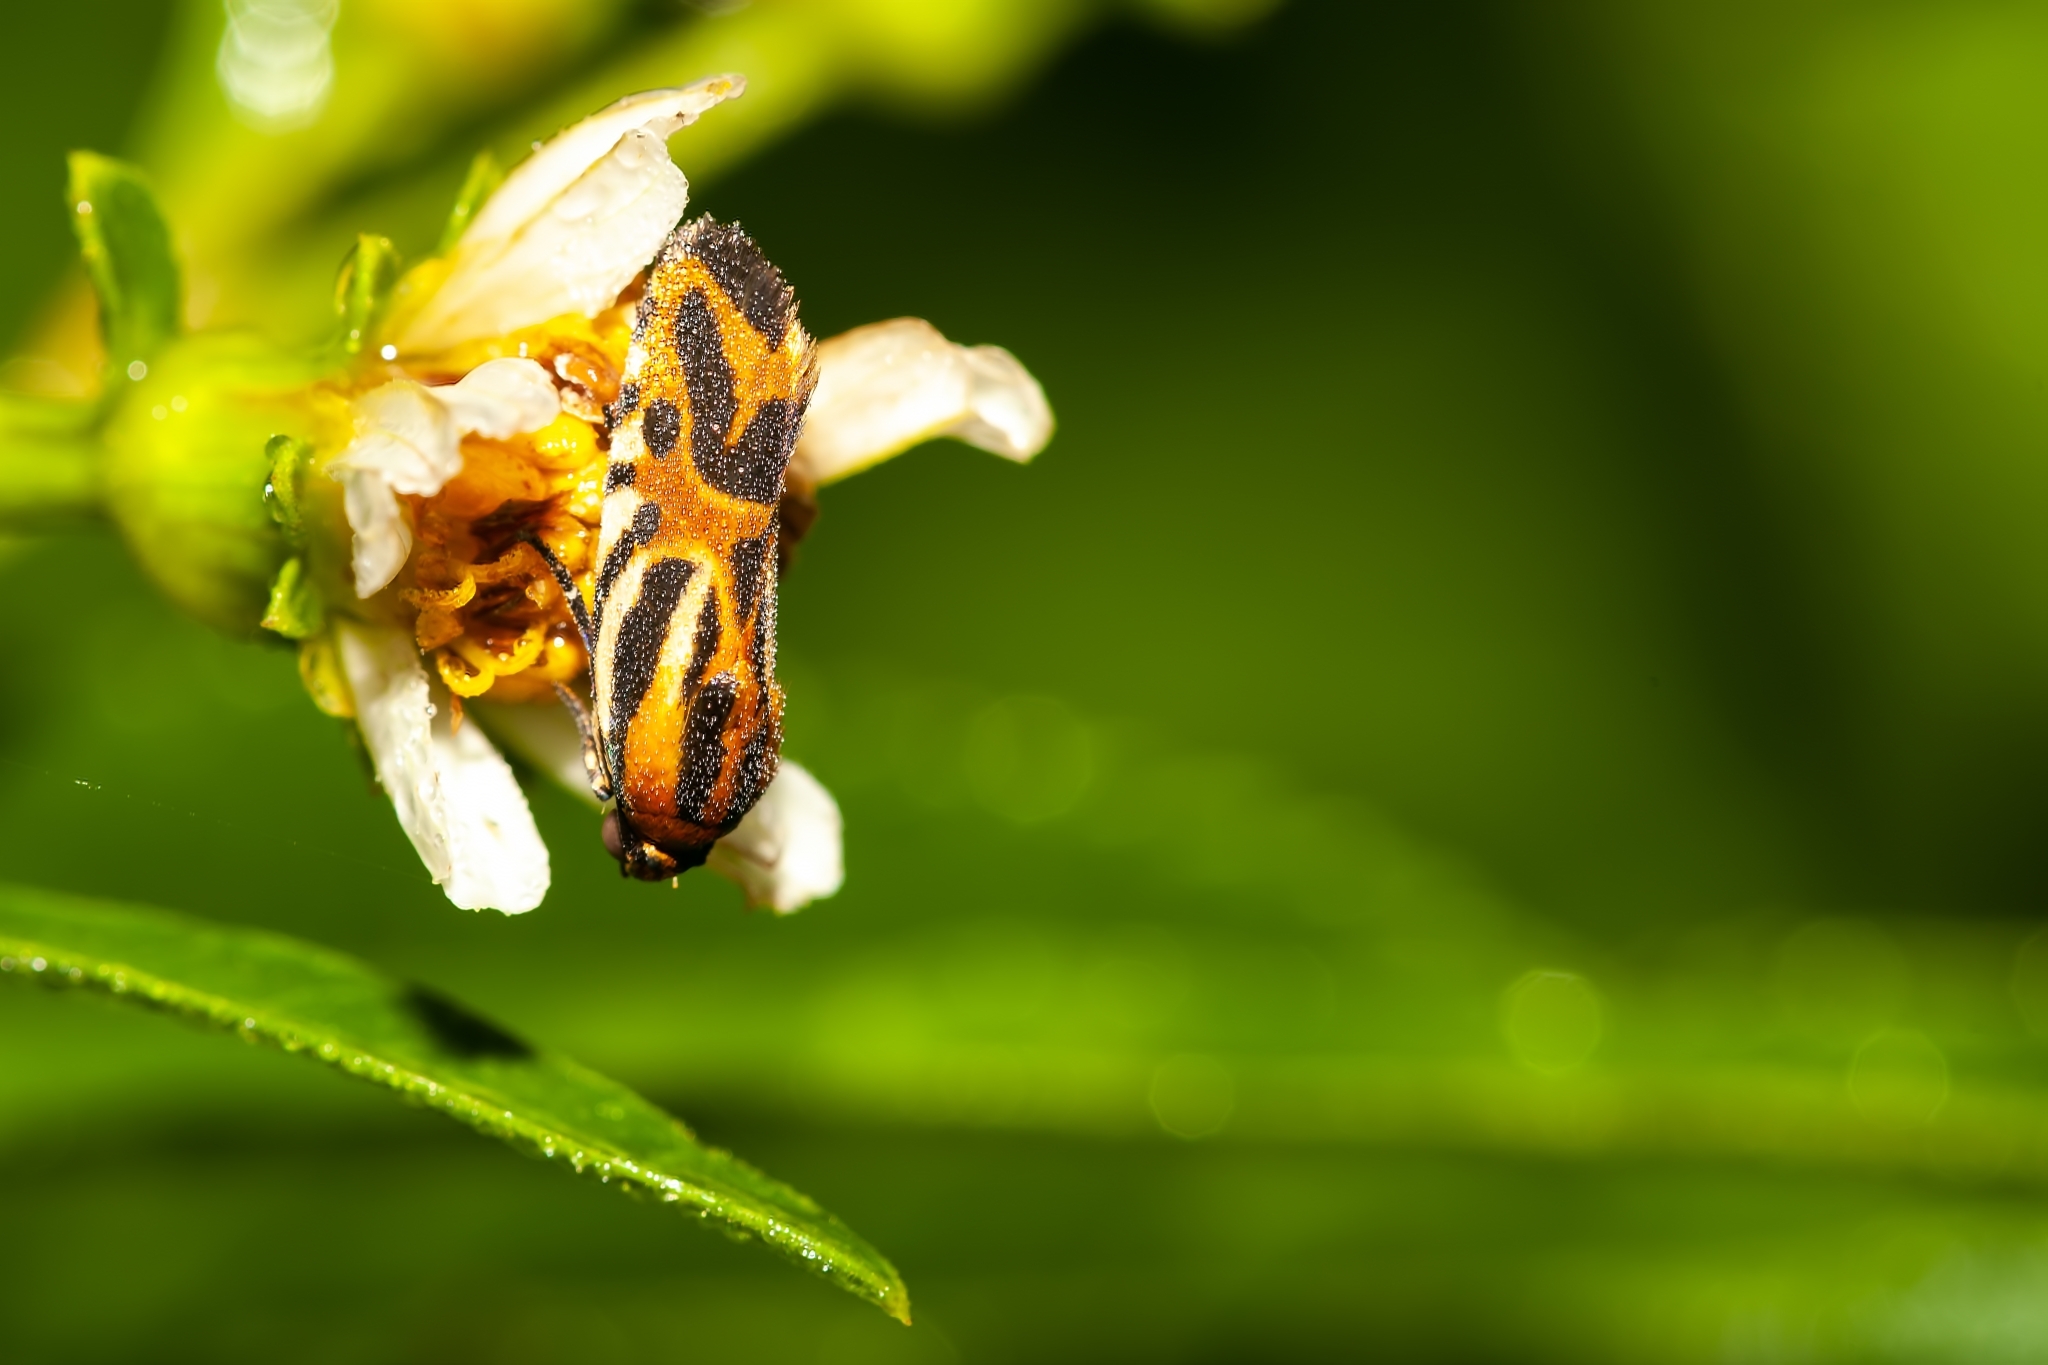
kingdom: Animalia
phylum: Arthropoda
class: Insecta
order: Lepidoptera
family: Noctuidae
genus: Acontia
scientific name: Acontia onagrus
